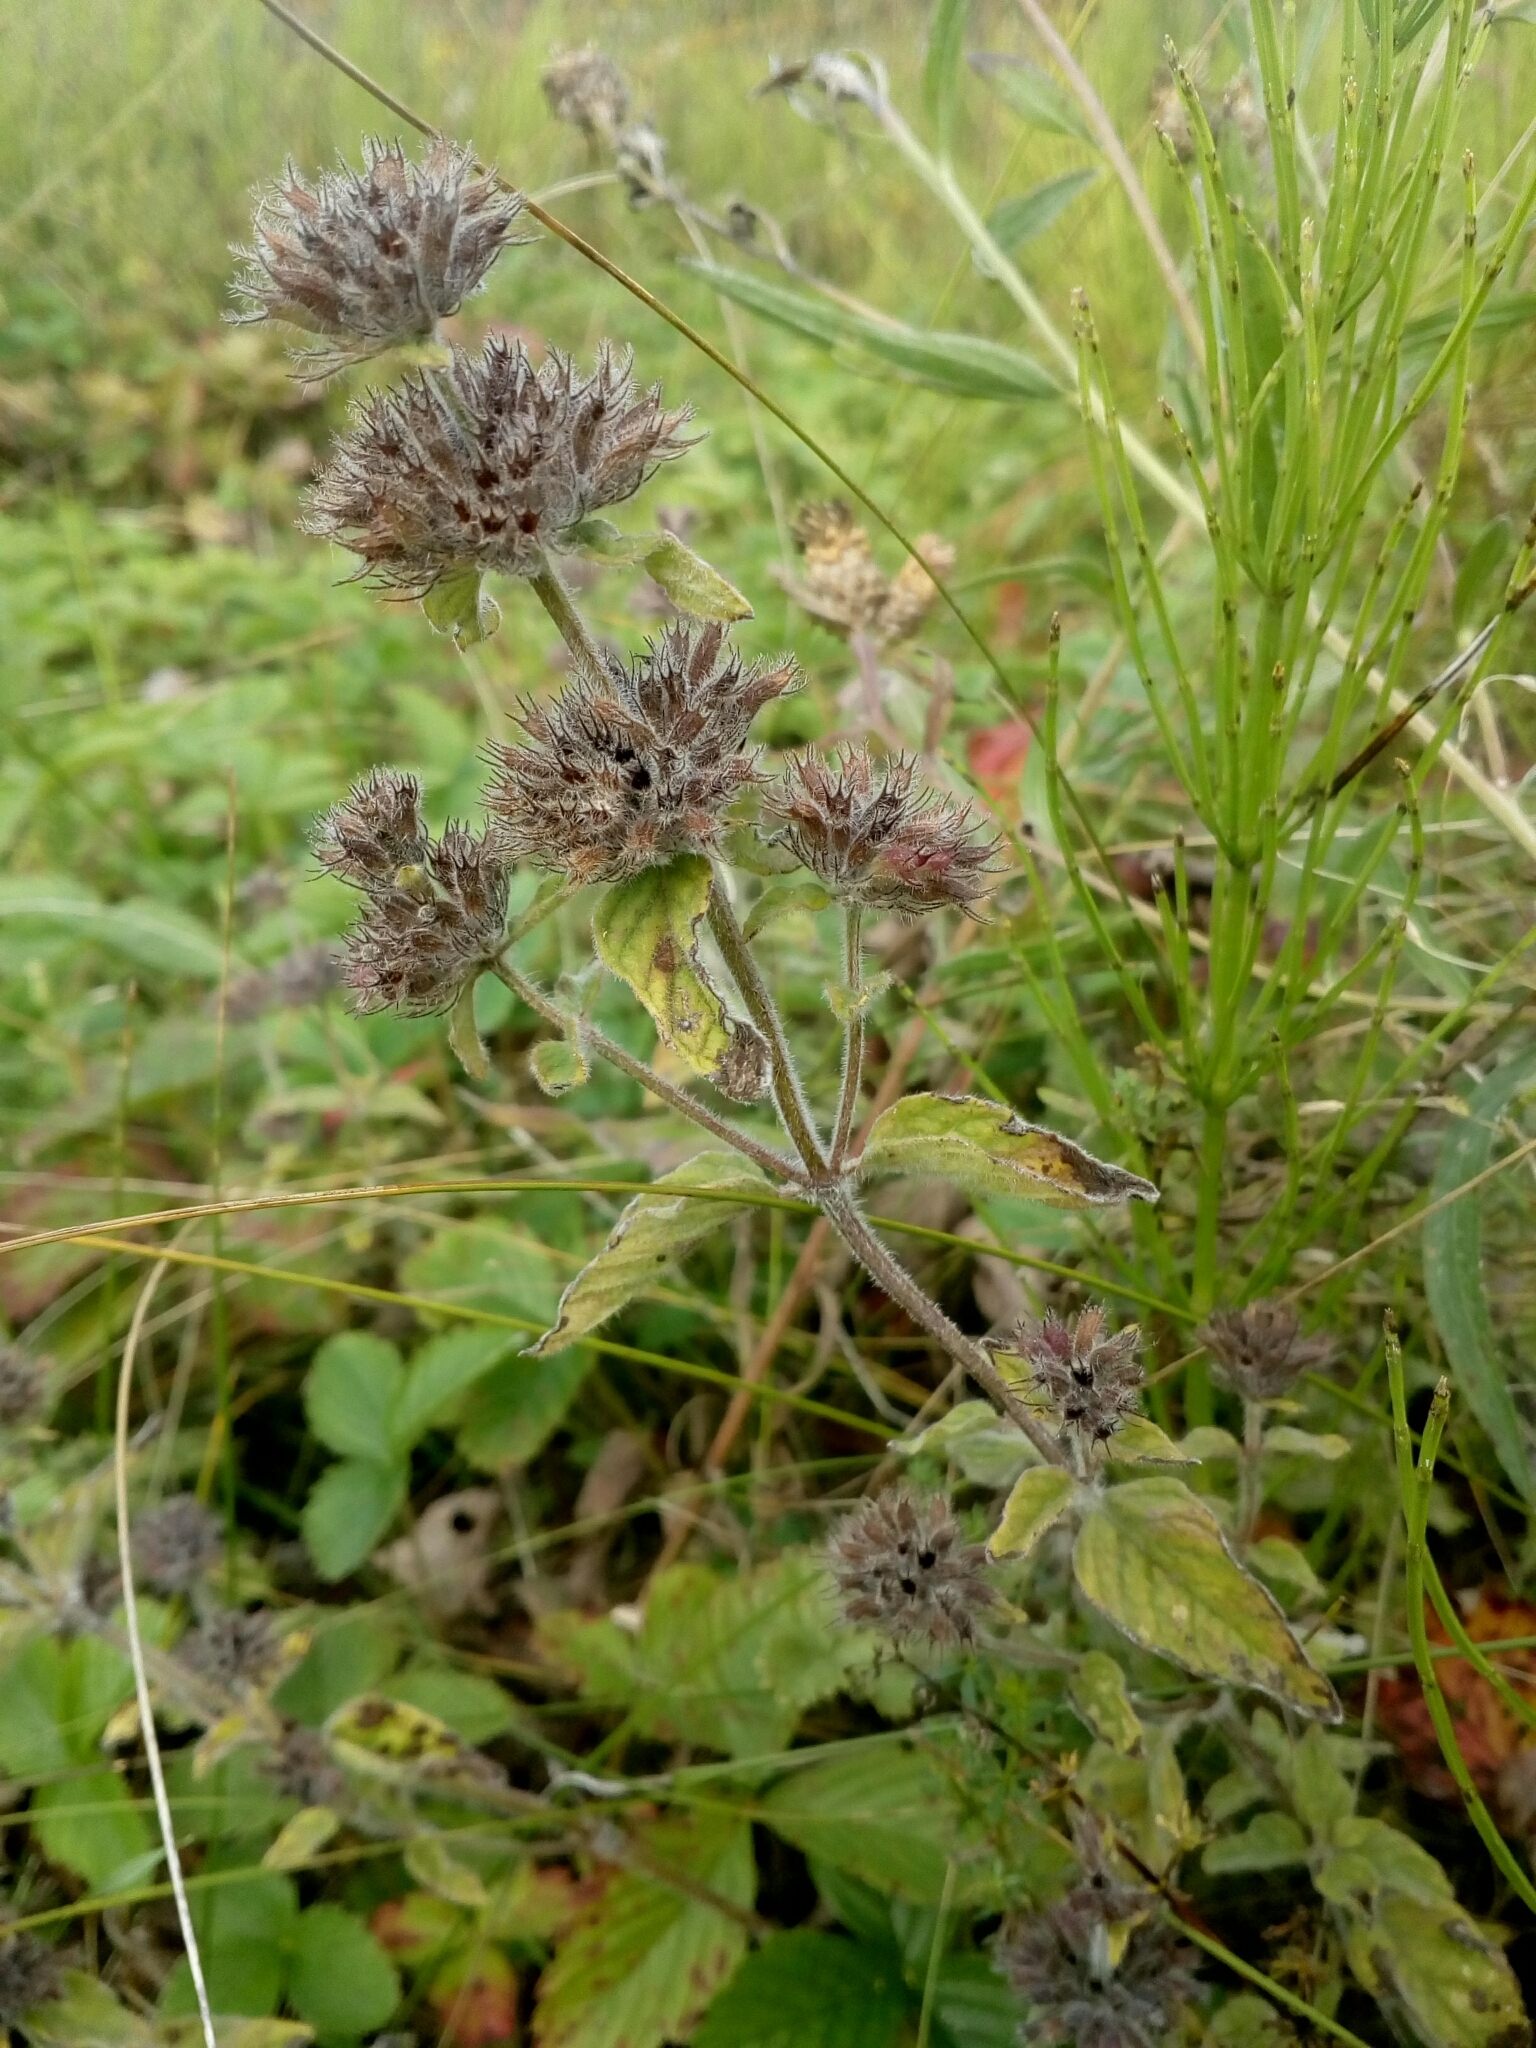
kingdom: Plantae
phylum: Tracheophyta
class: Magnoliopsida
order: Lamiales
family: Lamiaceae
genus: Clinopodium
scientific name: Clinopodium vulgare
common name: Wild basil
